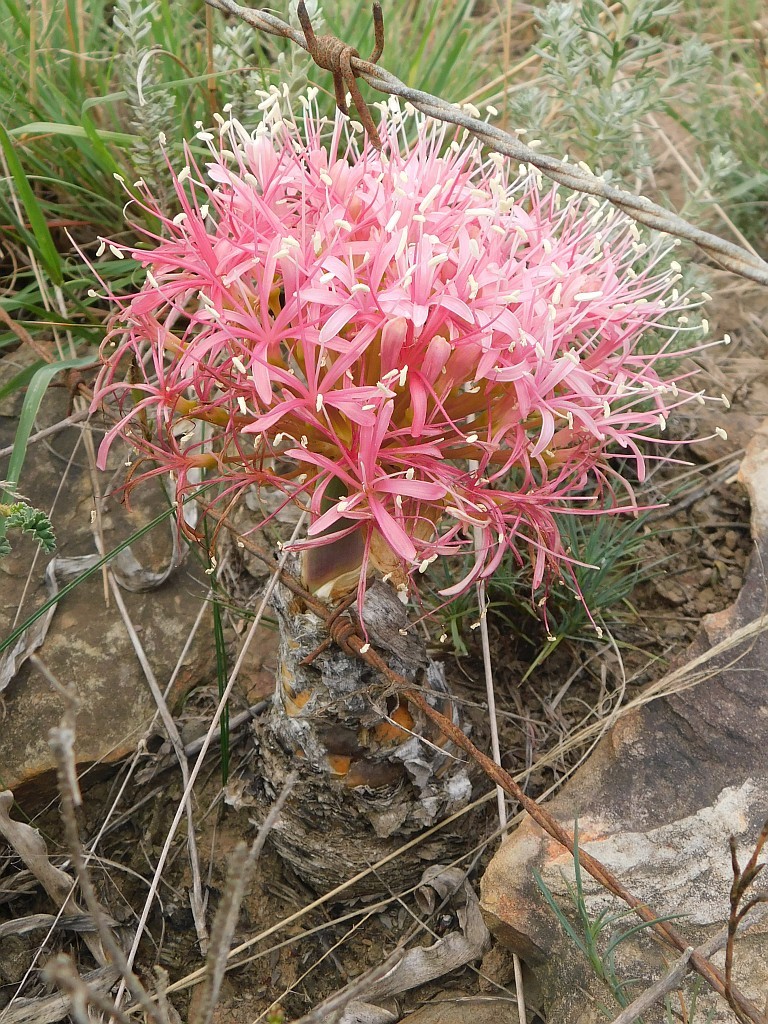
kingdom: Plantae
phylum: Tracheophyta
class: Liliopsida
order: Asparagales
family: Amaryllidaceae
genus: Boophone
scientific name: Boophone disticha
